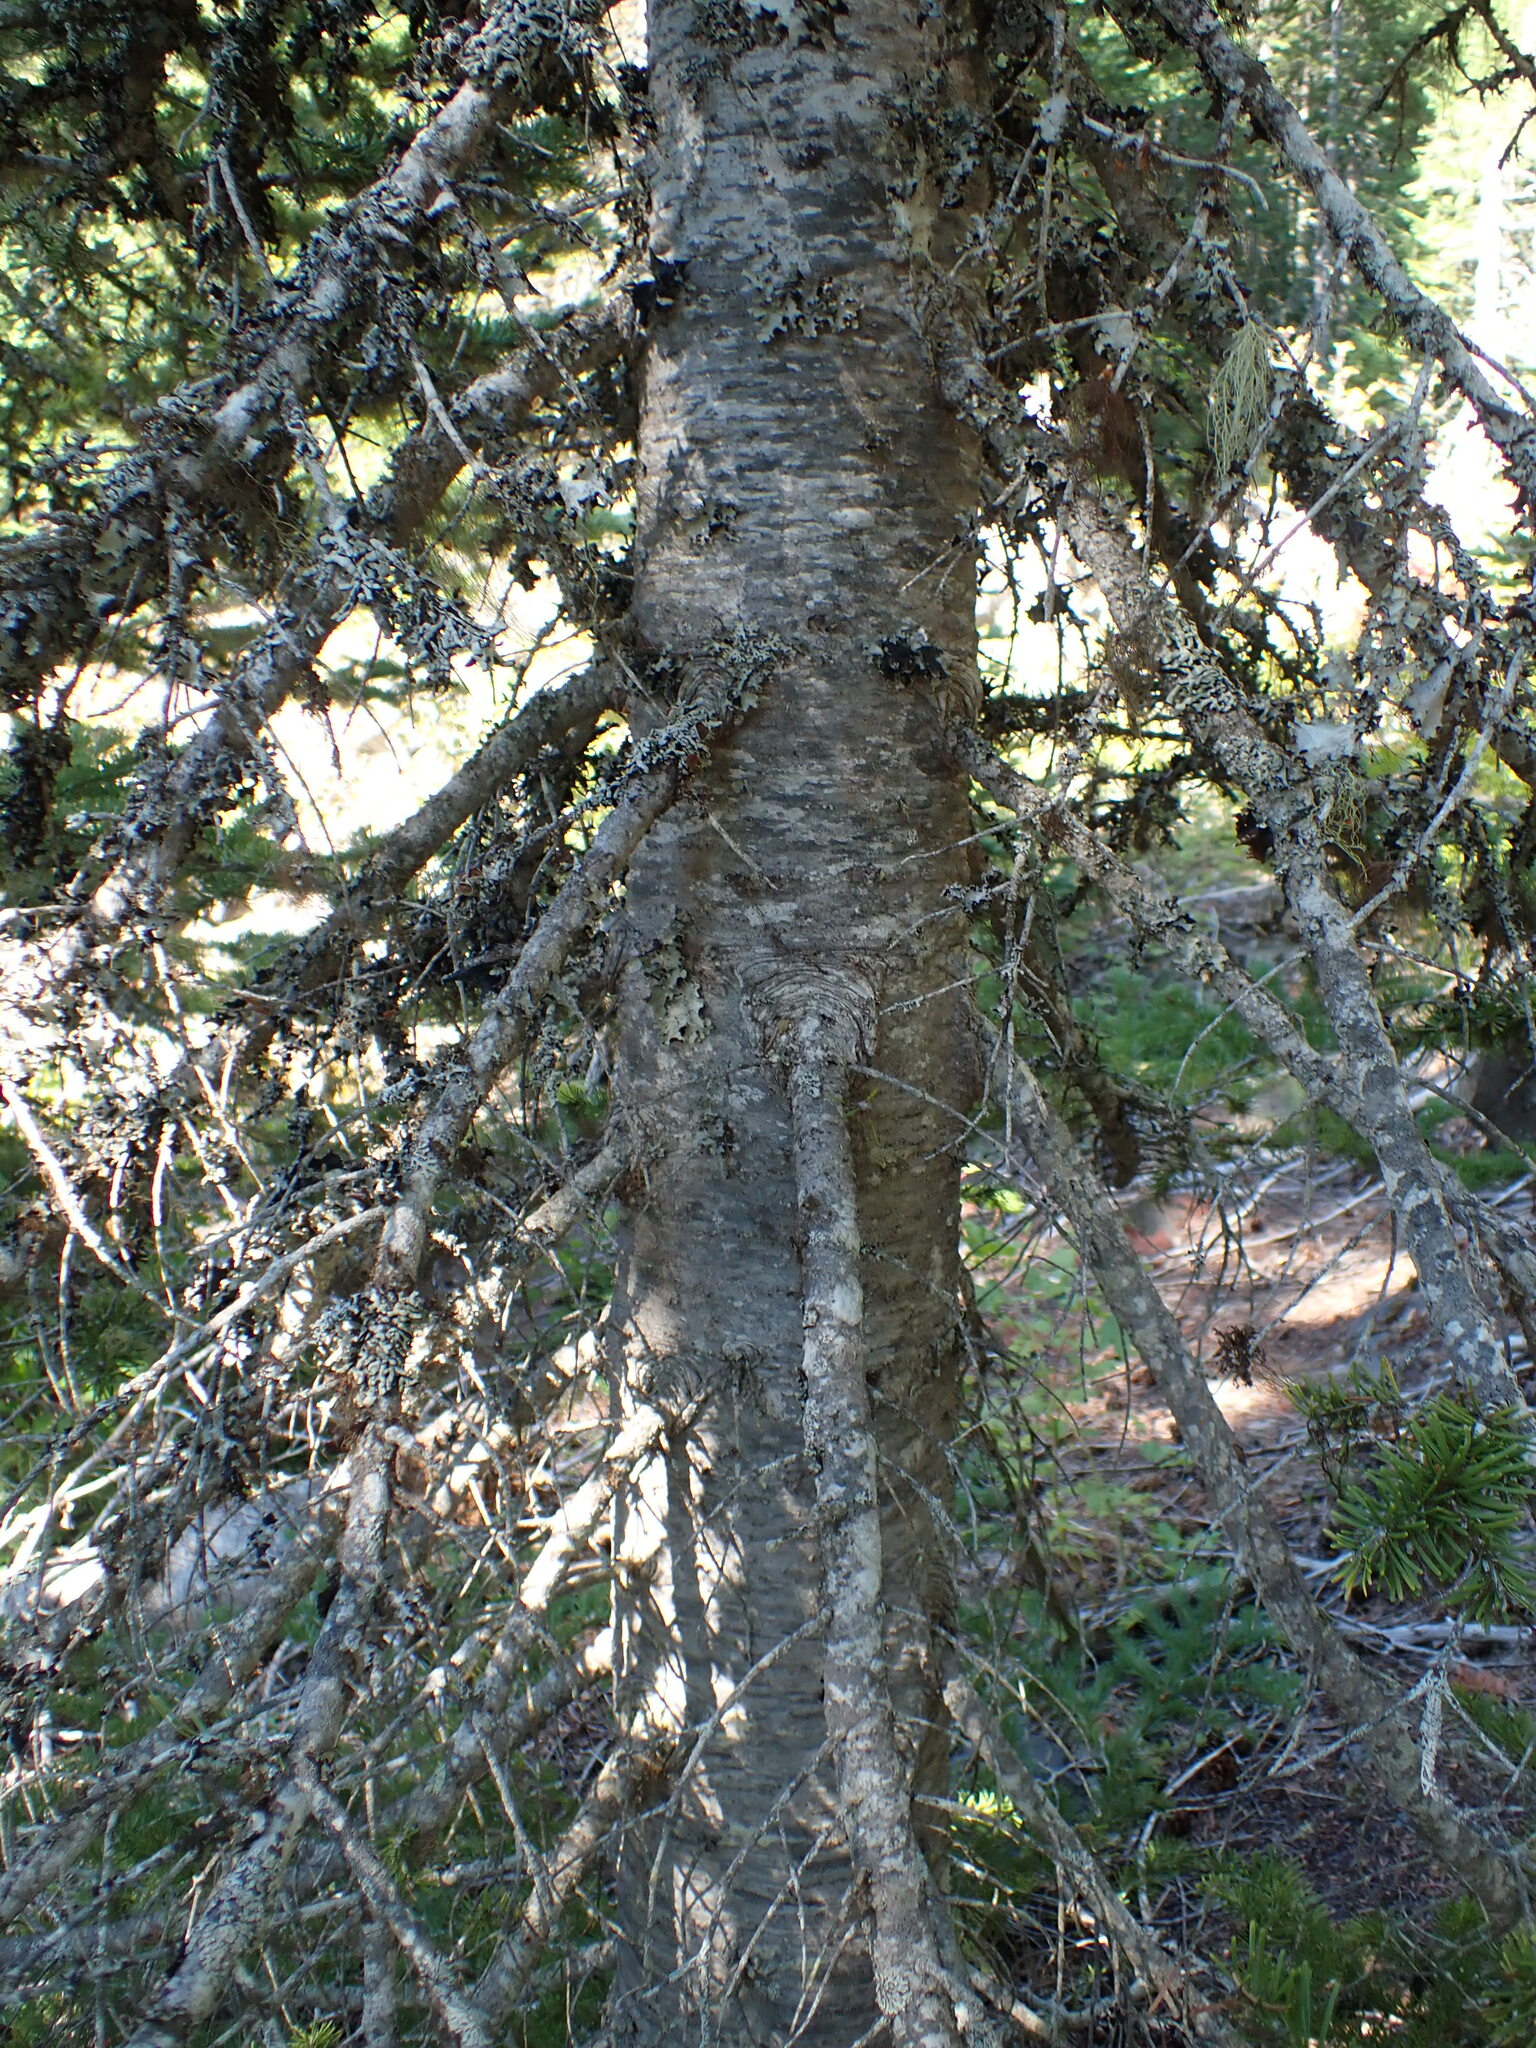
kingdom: Plantae
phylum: Tracheophyta
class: Pinopsida
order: Pinales
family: Pinaceae
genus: Abies
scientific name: Abies lasiocarpa
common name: Subalpine fir
